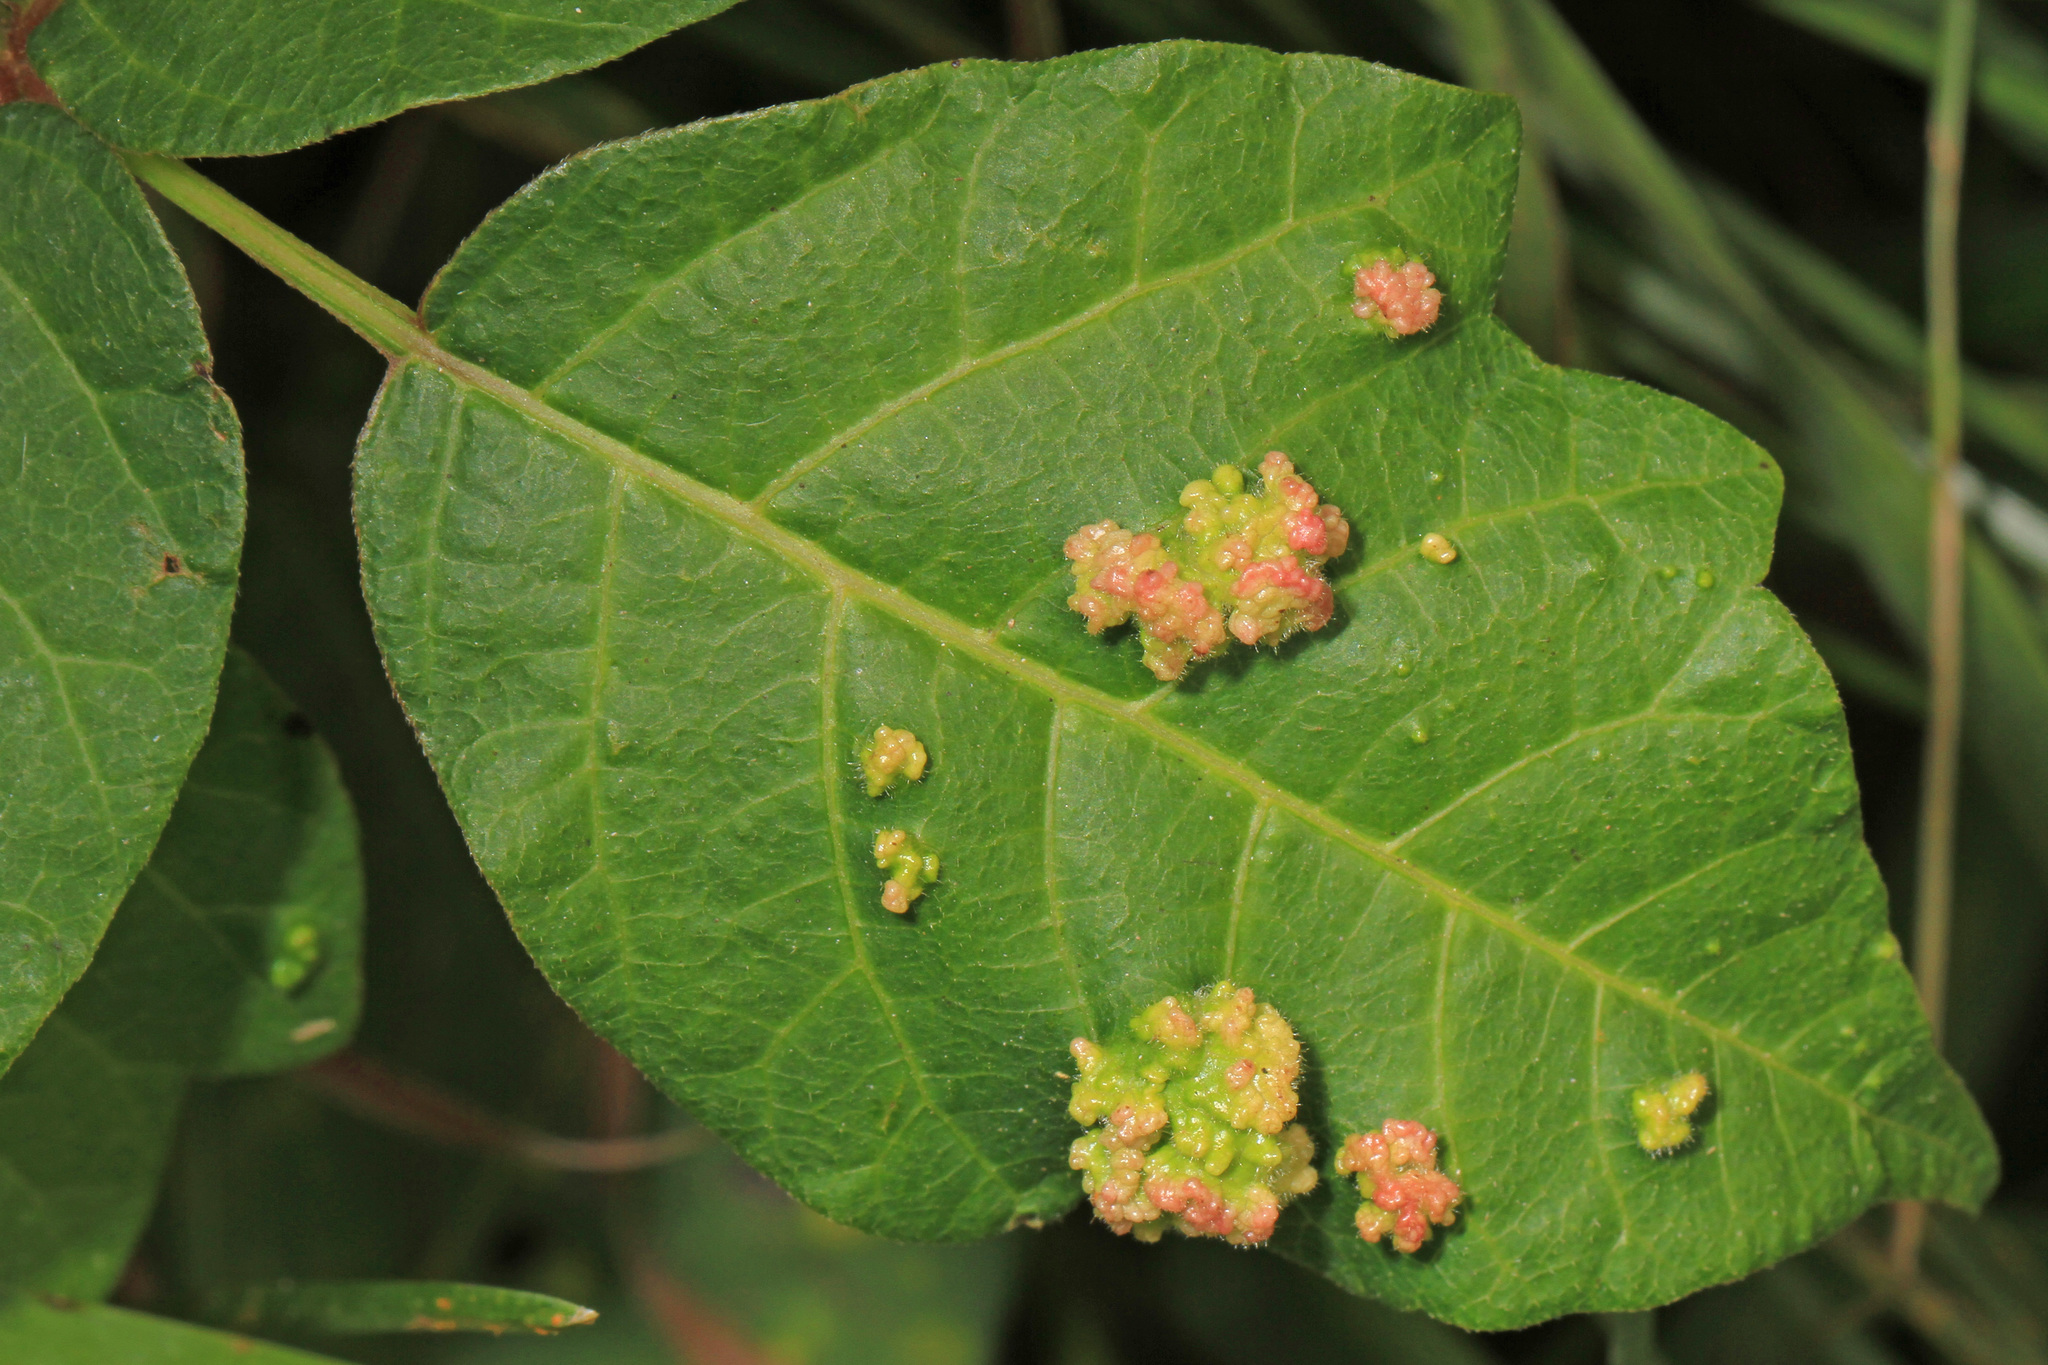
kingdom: Animalia
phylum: Arthropoda
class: Arachnida
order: Trombidiformes
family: Eriophyidae
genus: Aculops
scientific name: Aculops
